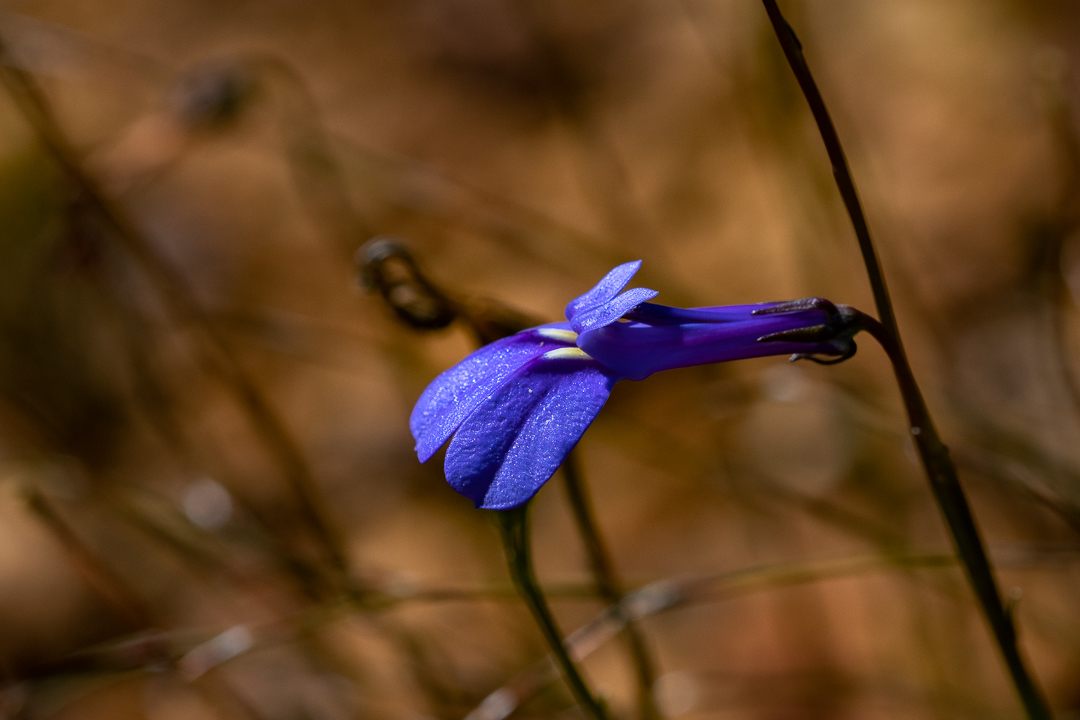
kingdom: Plantae
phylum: Tracheophyta
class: Magnoliopsida
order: Asterales
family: Campanulaceae
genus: Lobelia
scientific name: Lobelia coronopifolia
